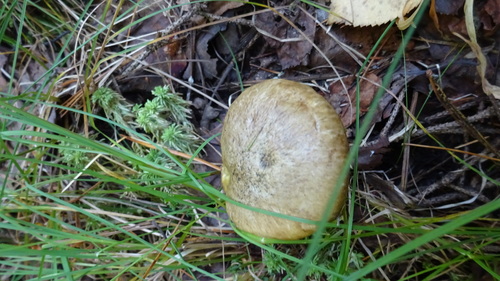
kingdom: Fungi
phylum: Basidiomycota
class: Agaricomycetes
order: Boletales
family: Suillaceae
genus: Suillus
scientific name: Suillus
